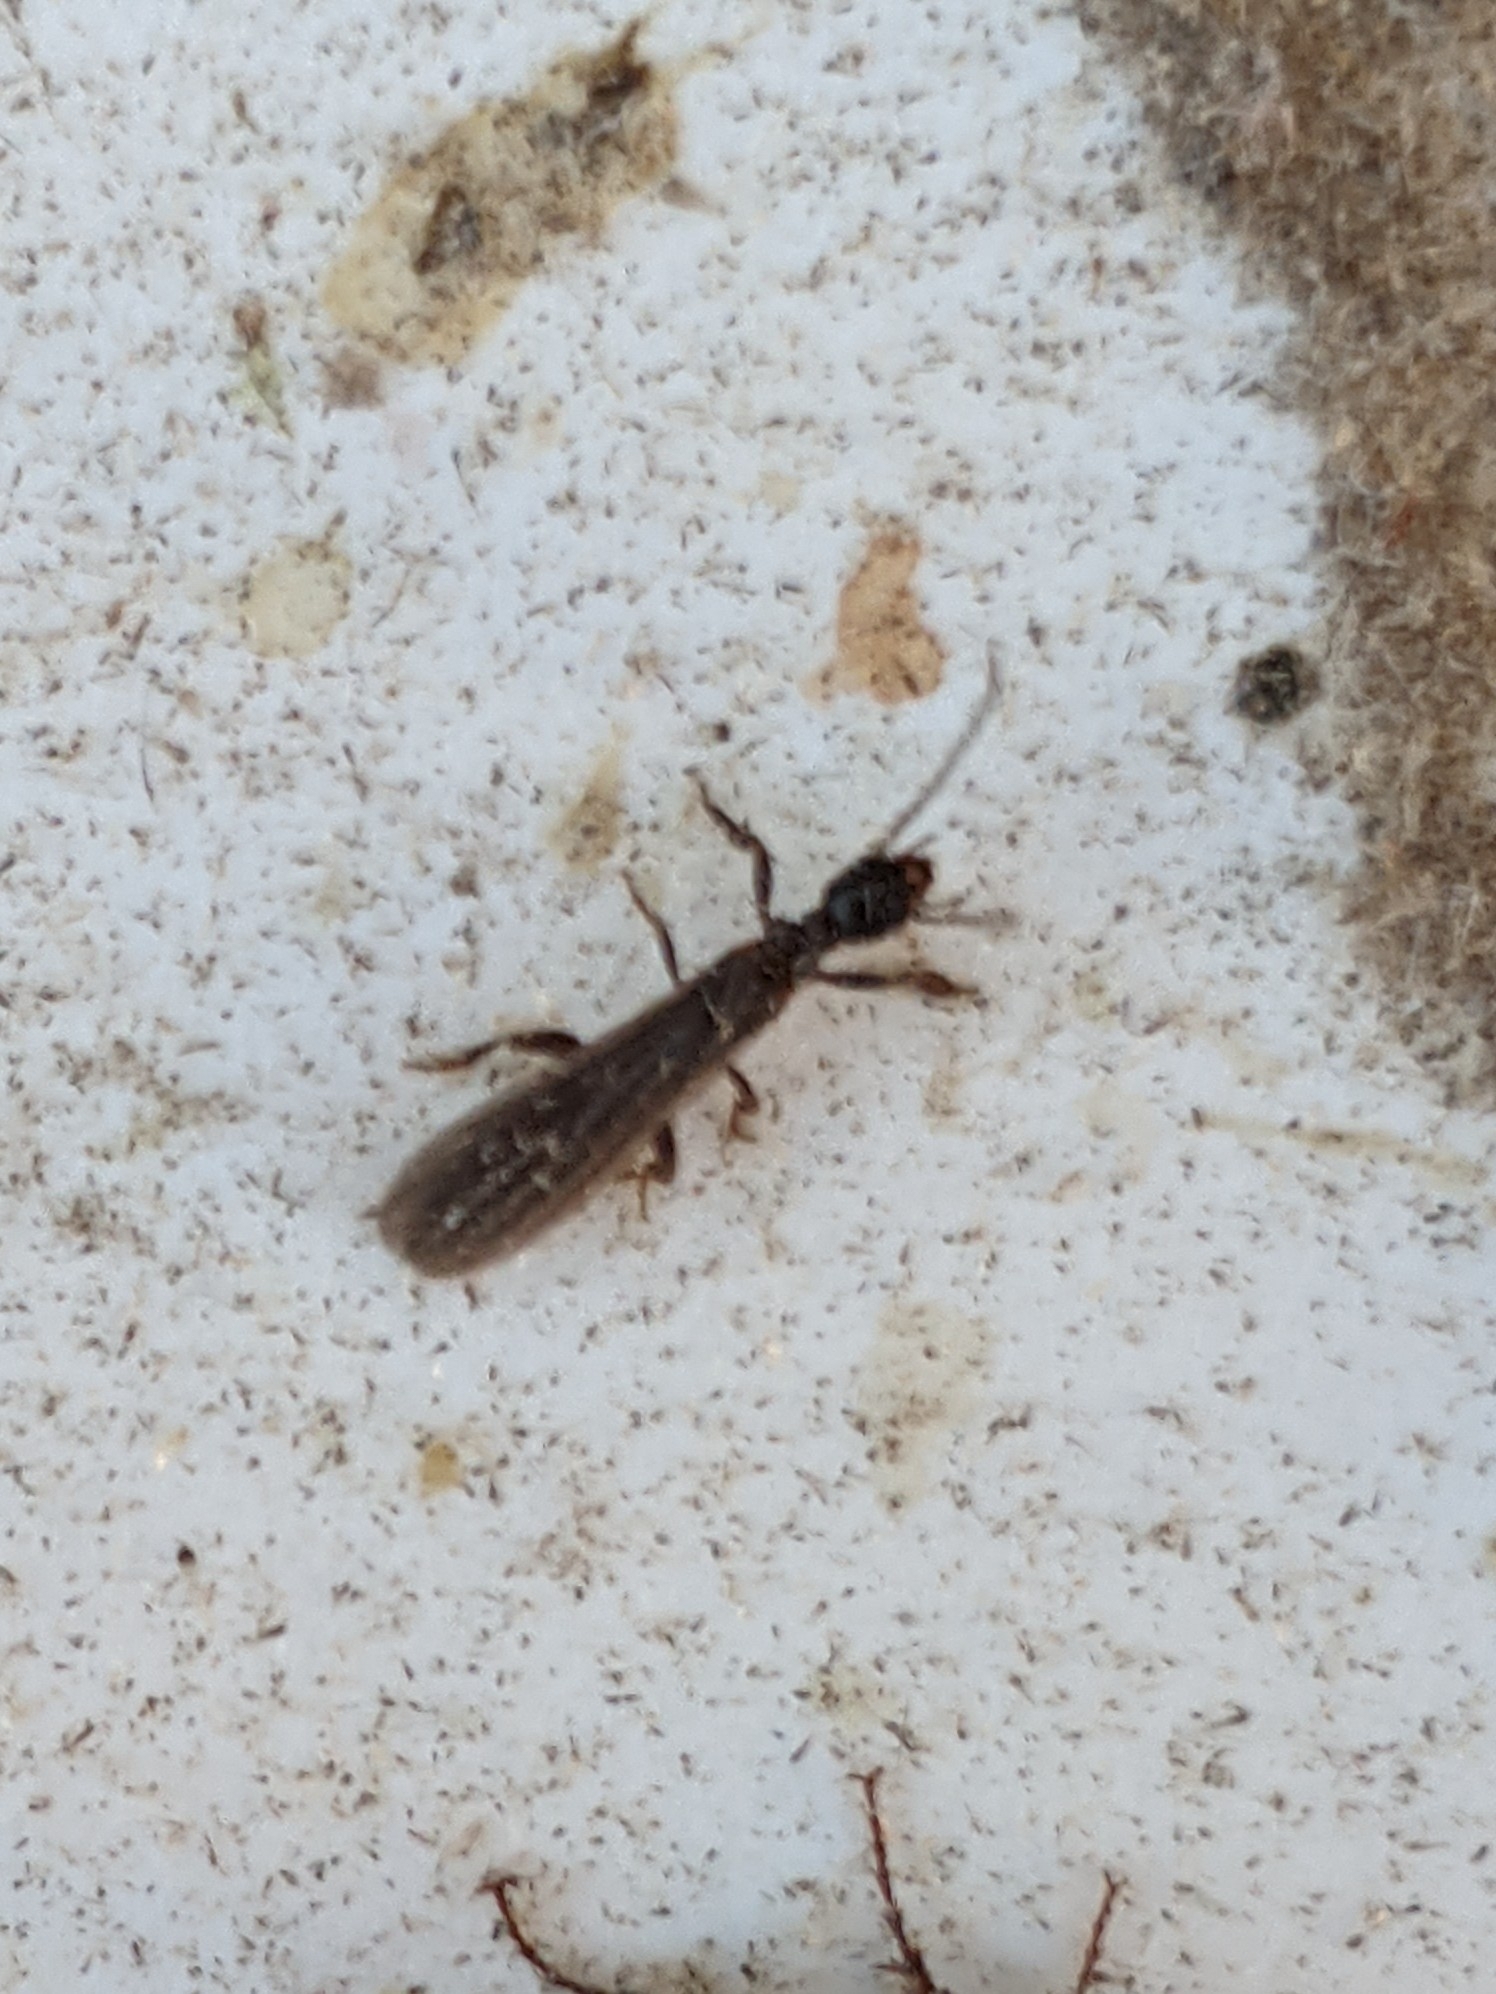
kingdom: Animalia
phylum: Arthropoda
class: Insecta
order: Embioptera
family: Oligotomidae
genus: Oligotoma
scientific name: Oligotoma nigra
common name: Black webspinner
